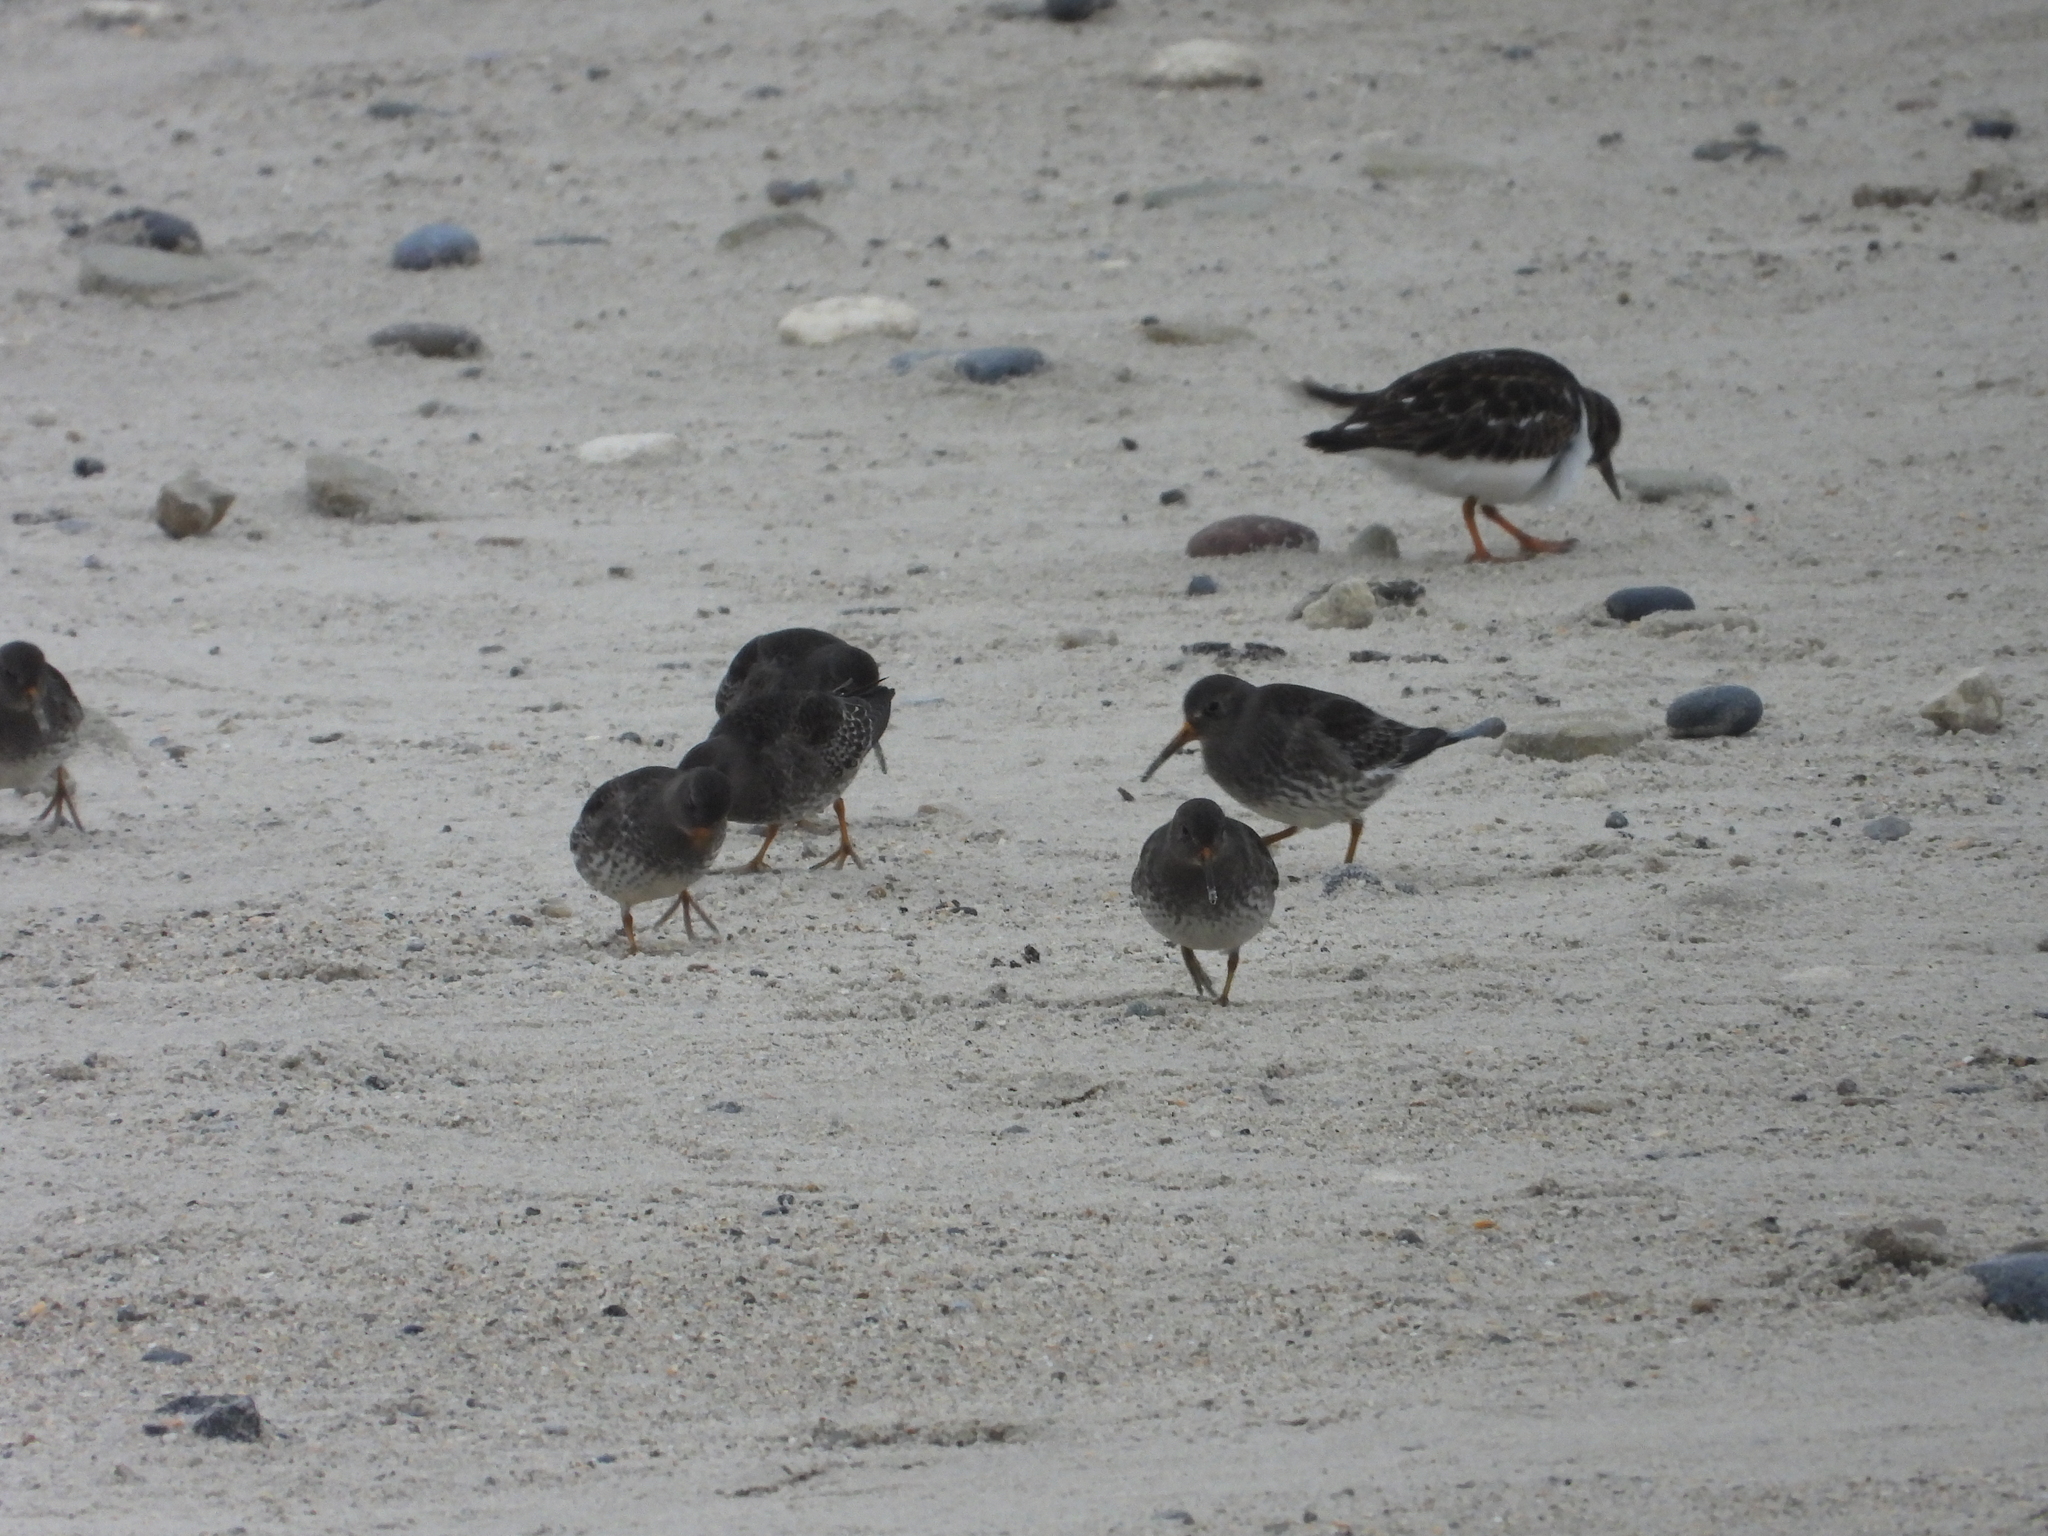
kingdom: Animalia
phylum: Chordata
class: Aves
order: Charadriiformes
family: Scolopacidae
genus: Calidris
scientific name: Calidris maritima
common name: Purple sandpiper
